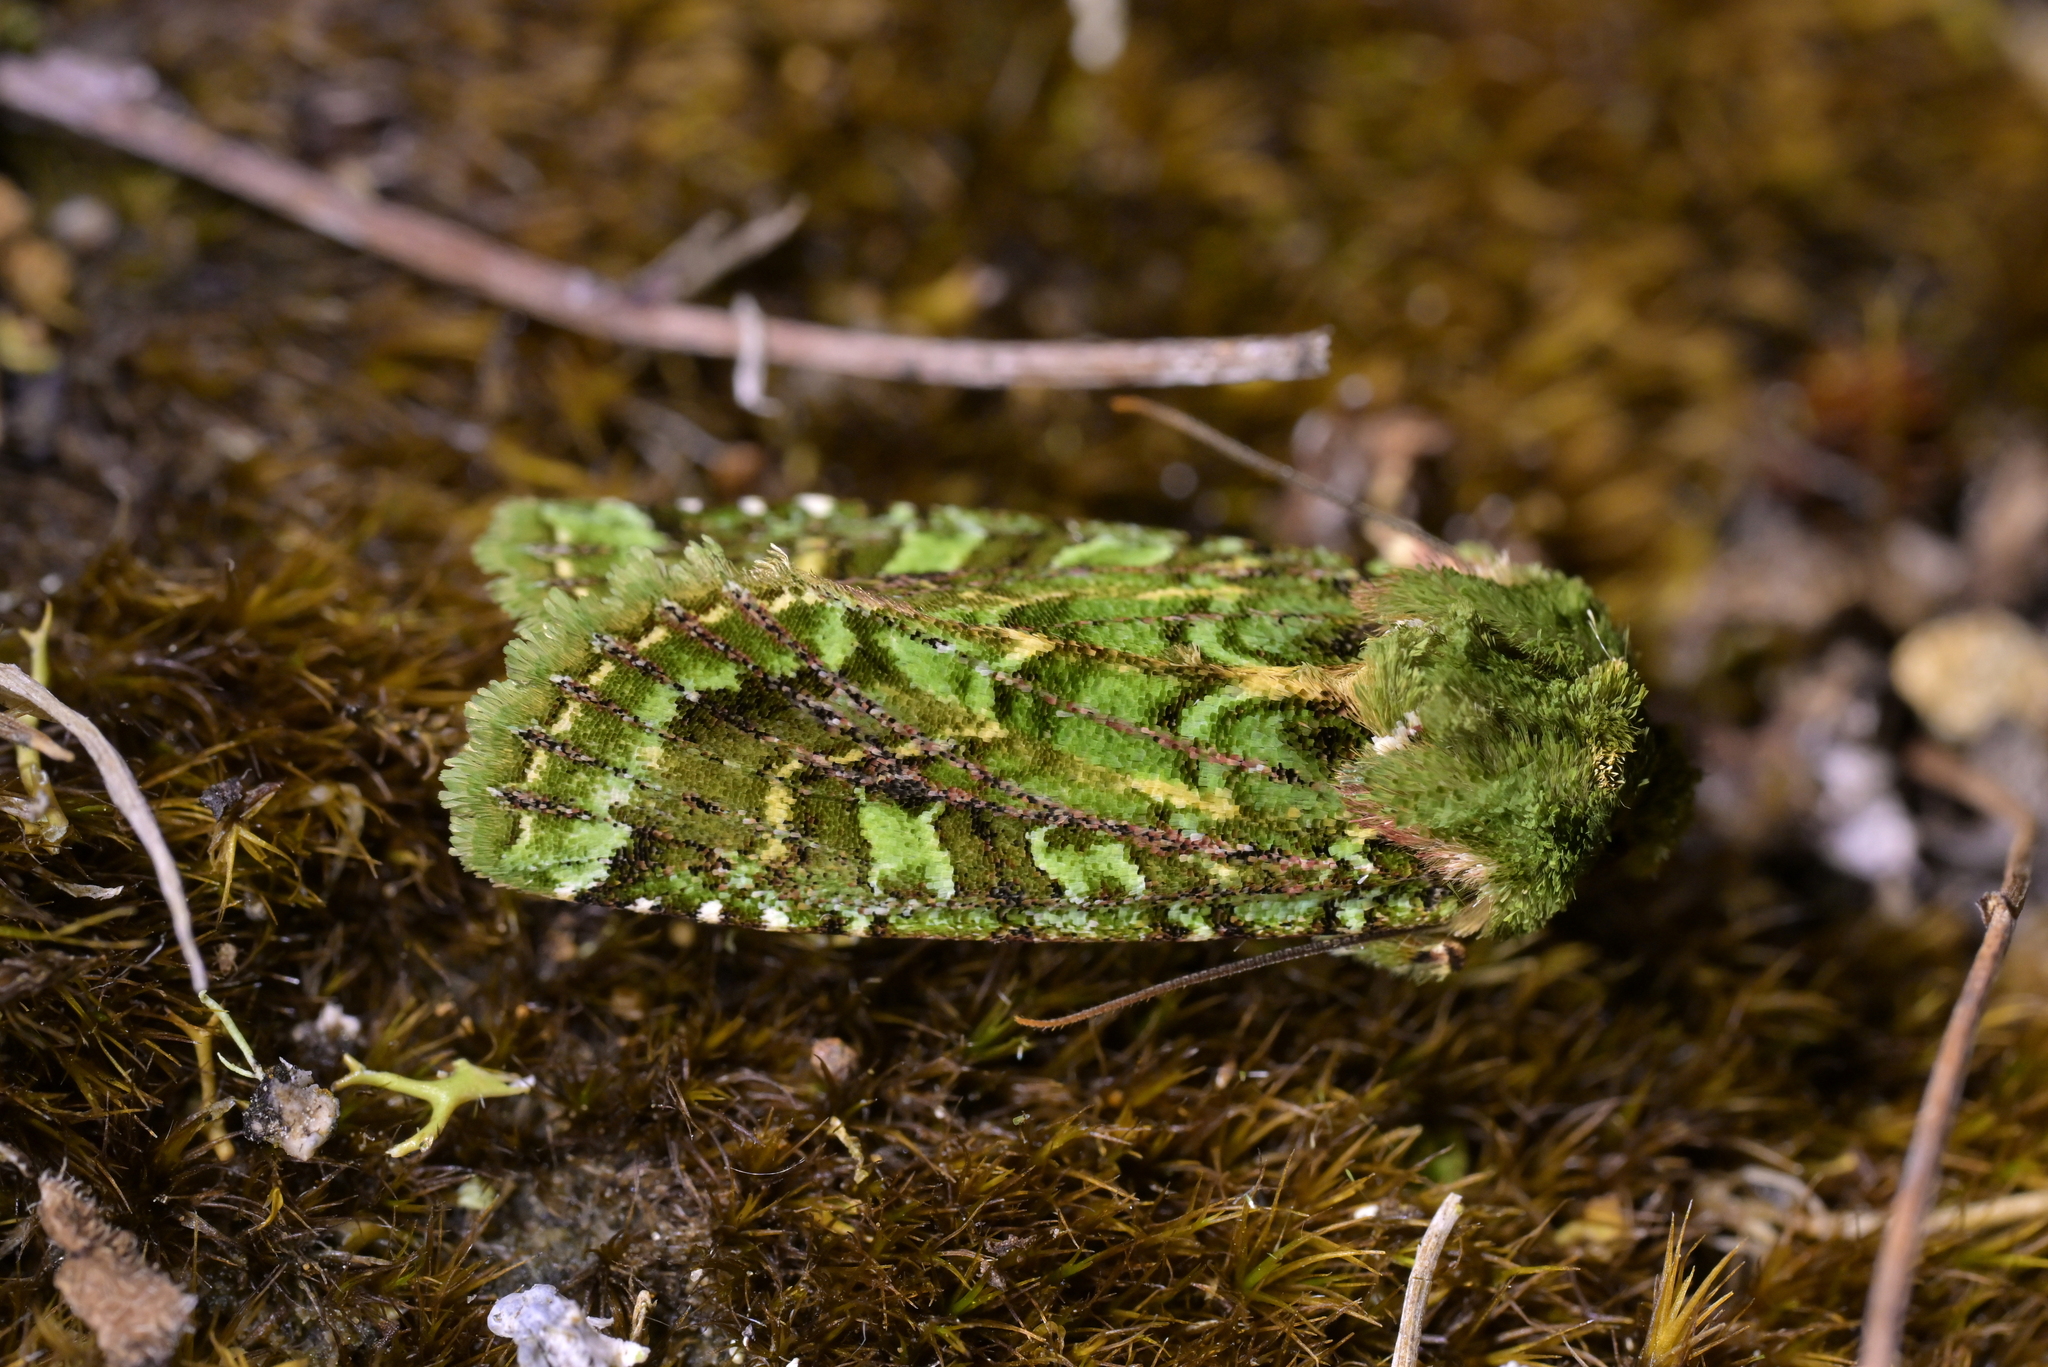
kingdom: Animalia
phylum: Arthropoda
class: Insecta
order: Lepidoptera
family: Noctuidae
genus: Feredayia
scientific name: Feredayia grammosa
